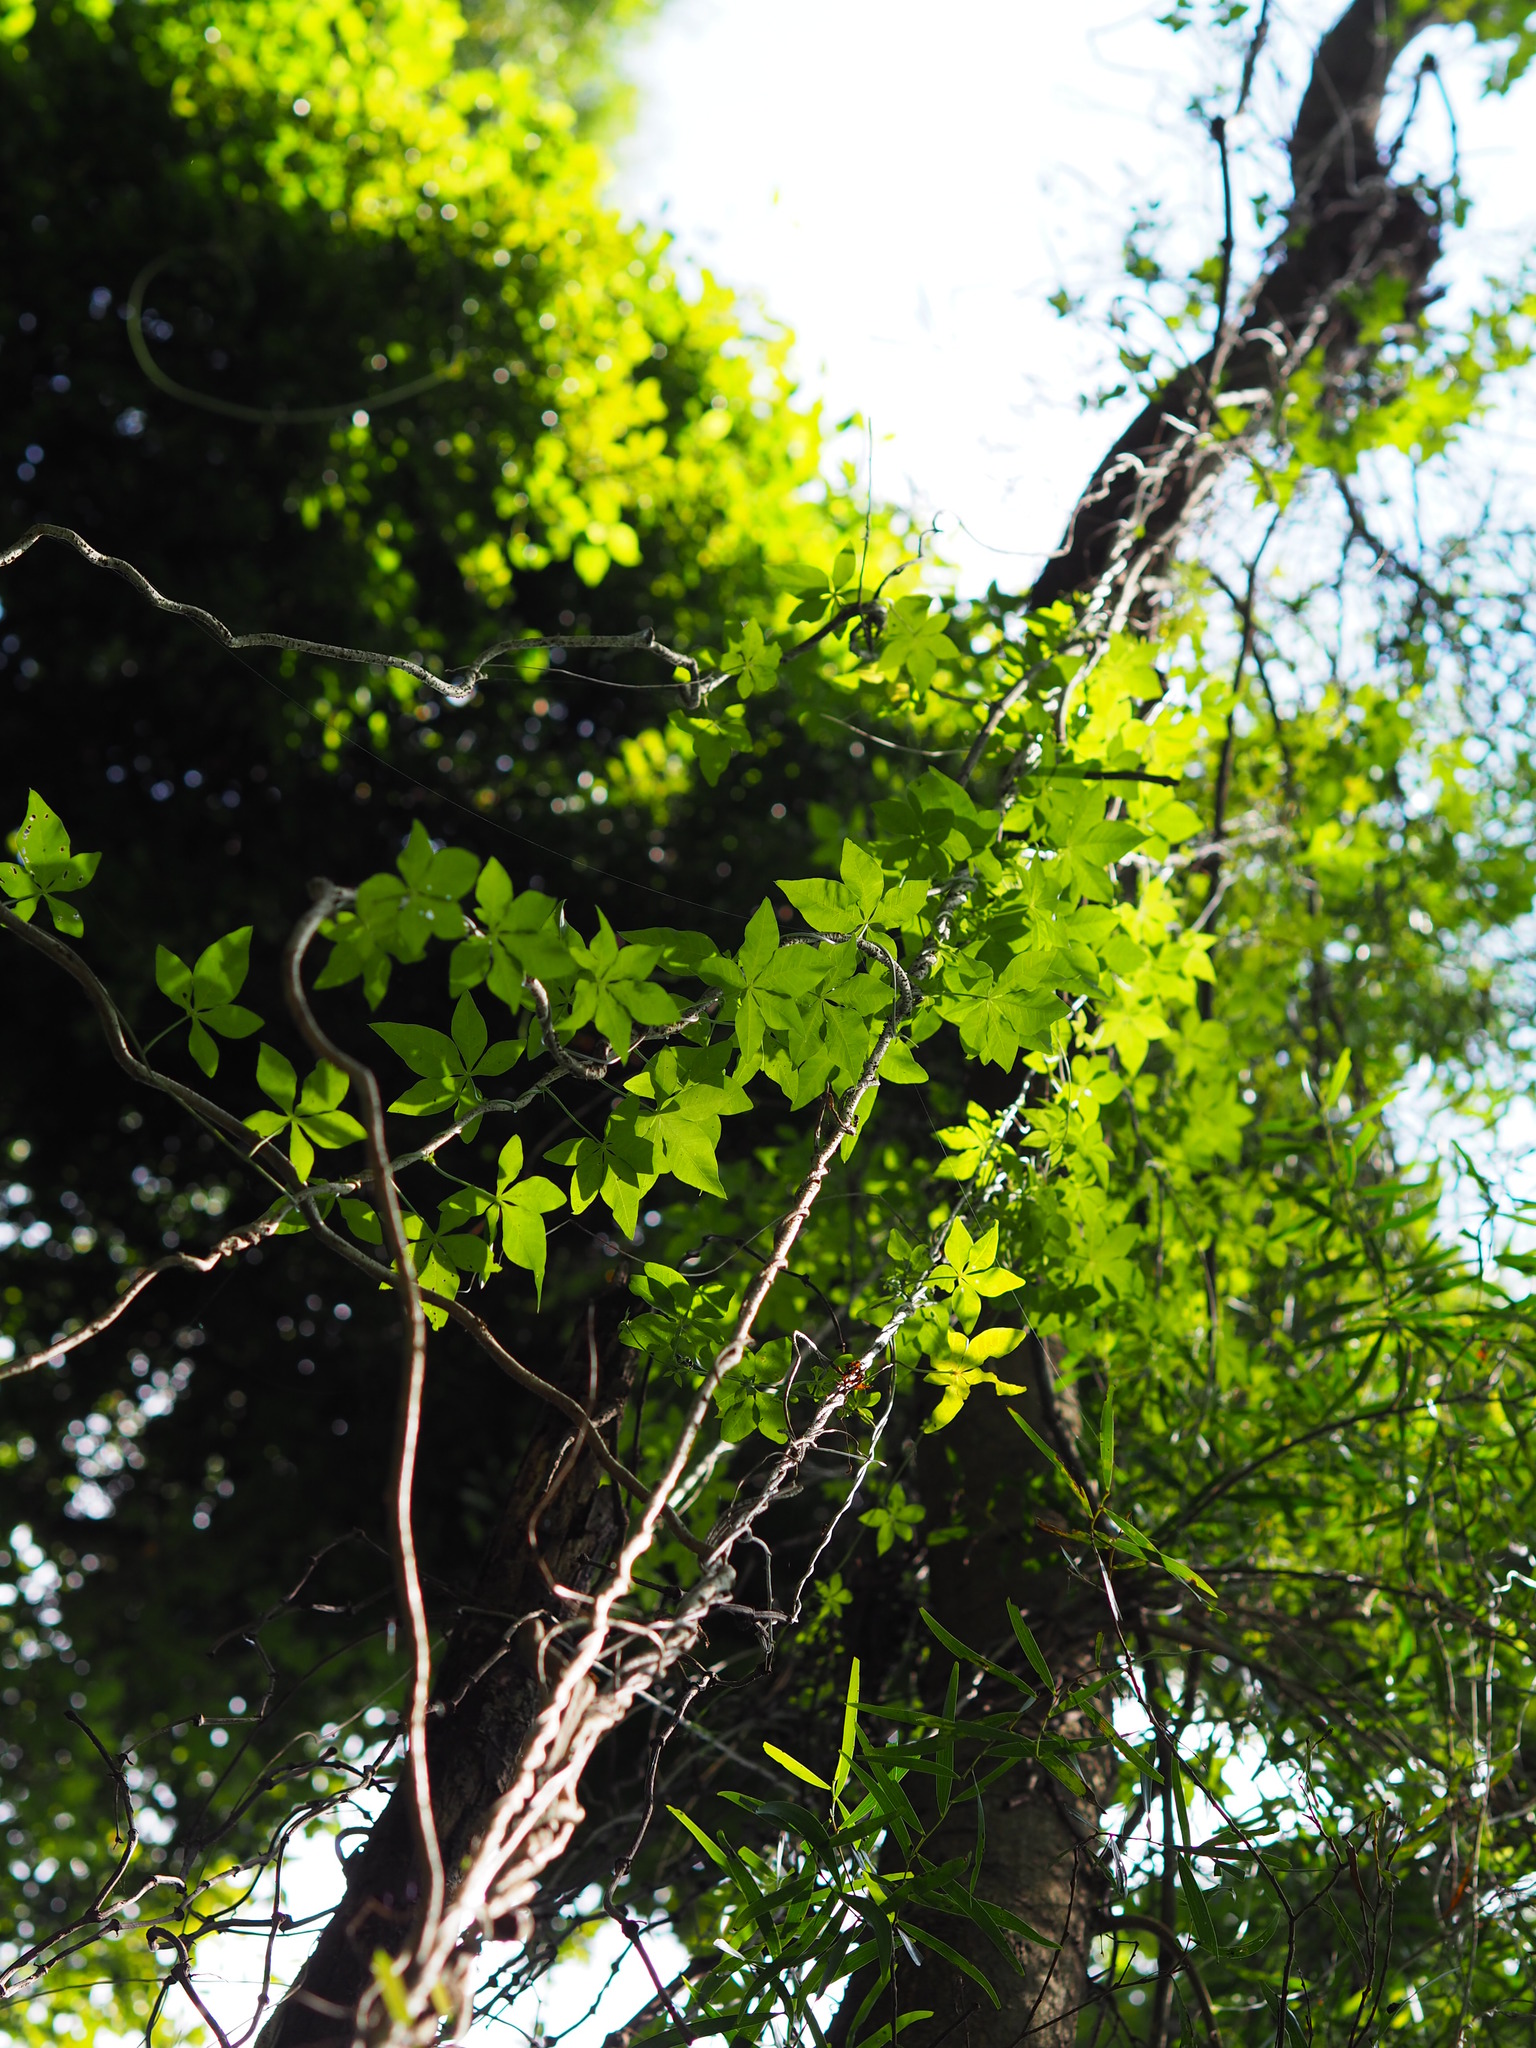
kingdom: Plantae
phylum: Tracheophyta
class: Magnoliopsida
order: Solanales
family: Convolvulaceae
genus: Ipomoea
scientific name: Ipomoea cairica
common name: Mile a minute vine
